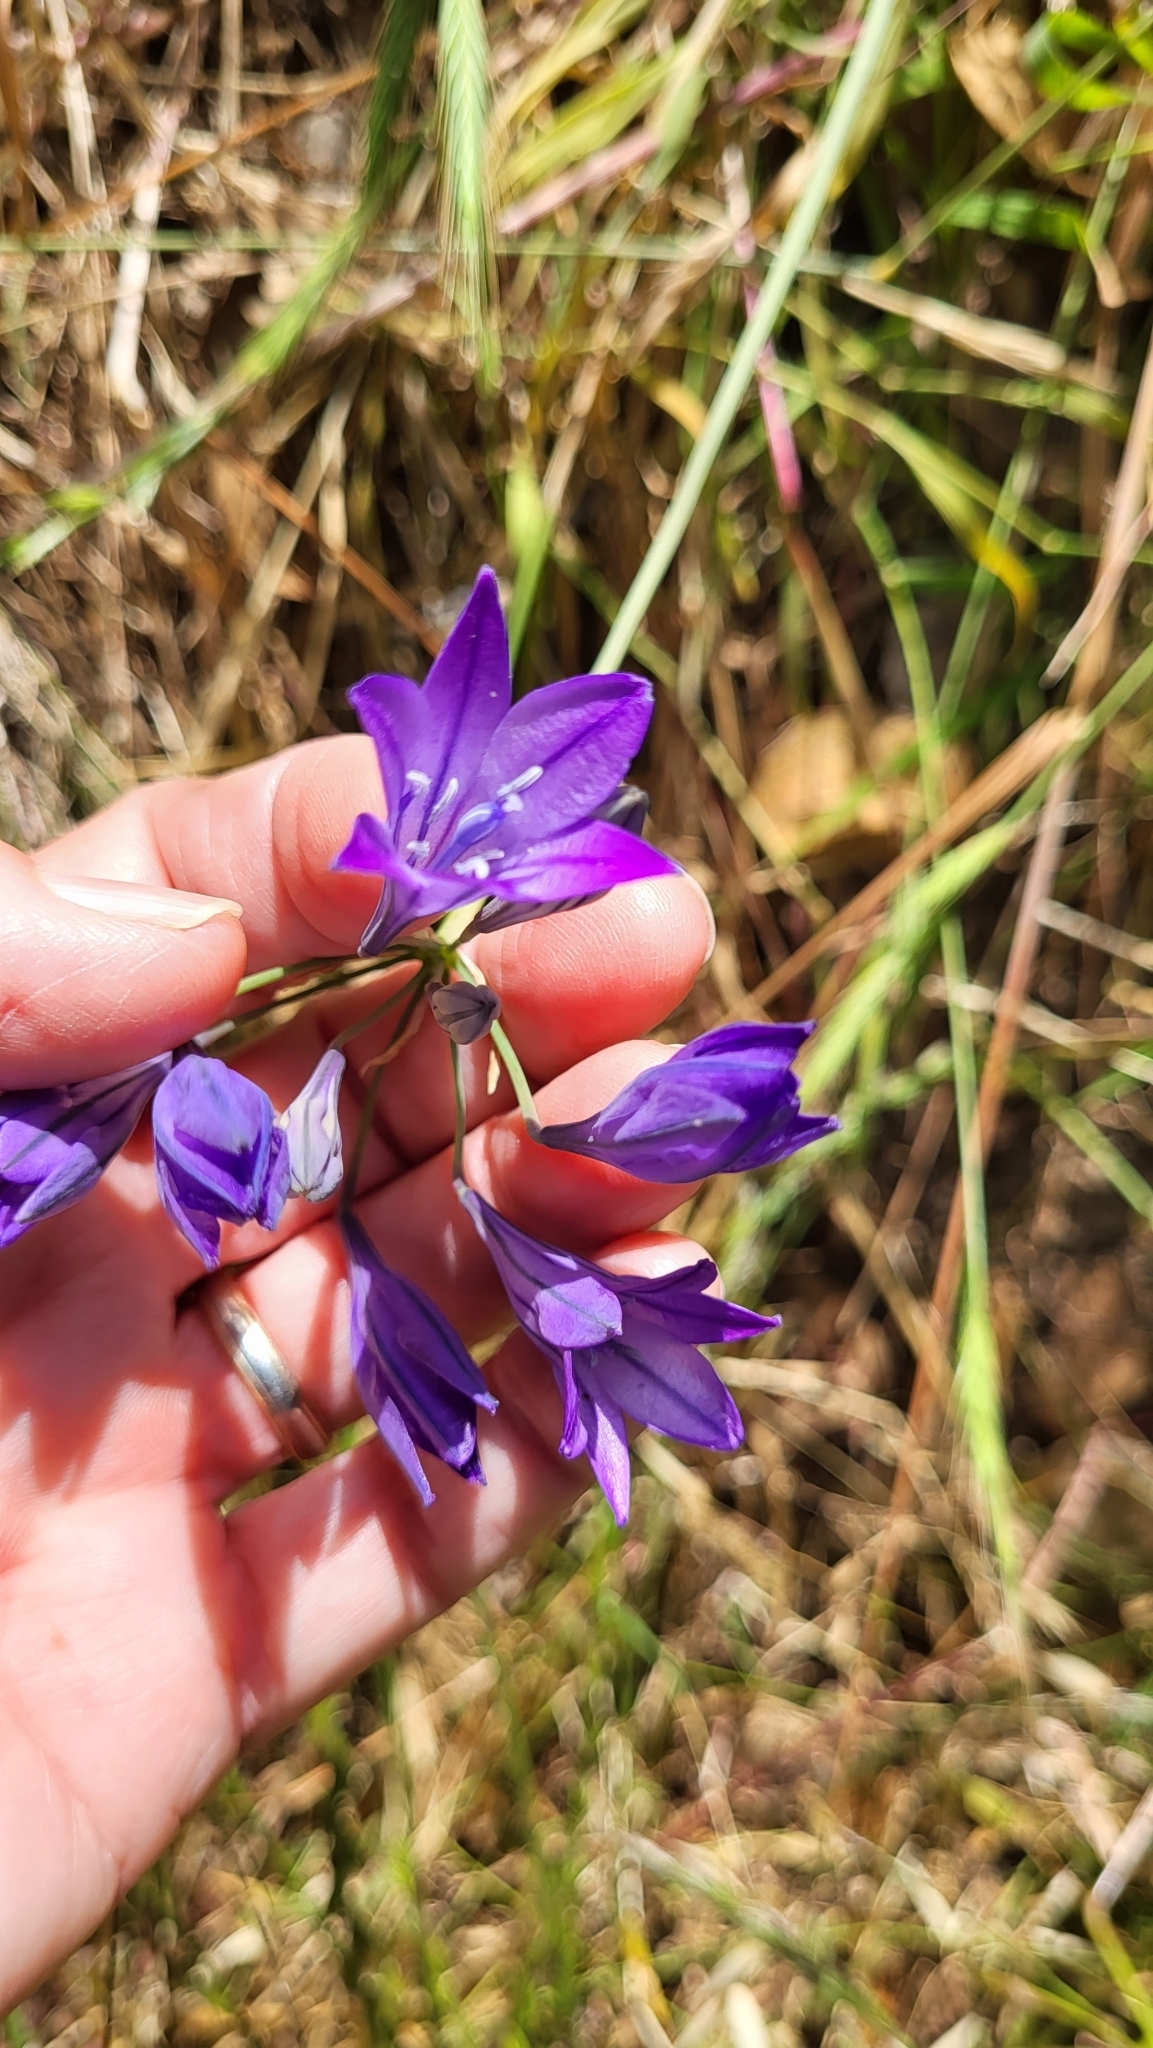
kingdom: Plantae
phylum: Tracheophyta
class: Liliopsida
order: Asparagales
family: Asparagaceae
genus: Triteleia
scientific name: Triteleia laxa
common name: Triplet-lily
